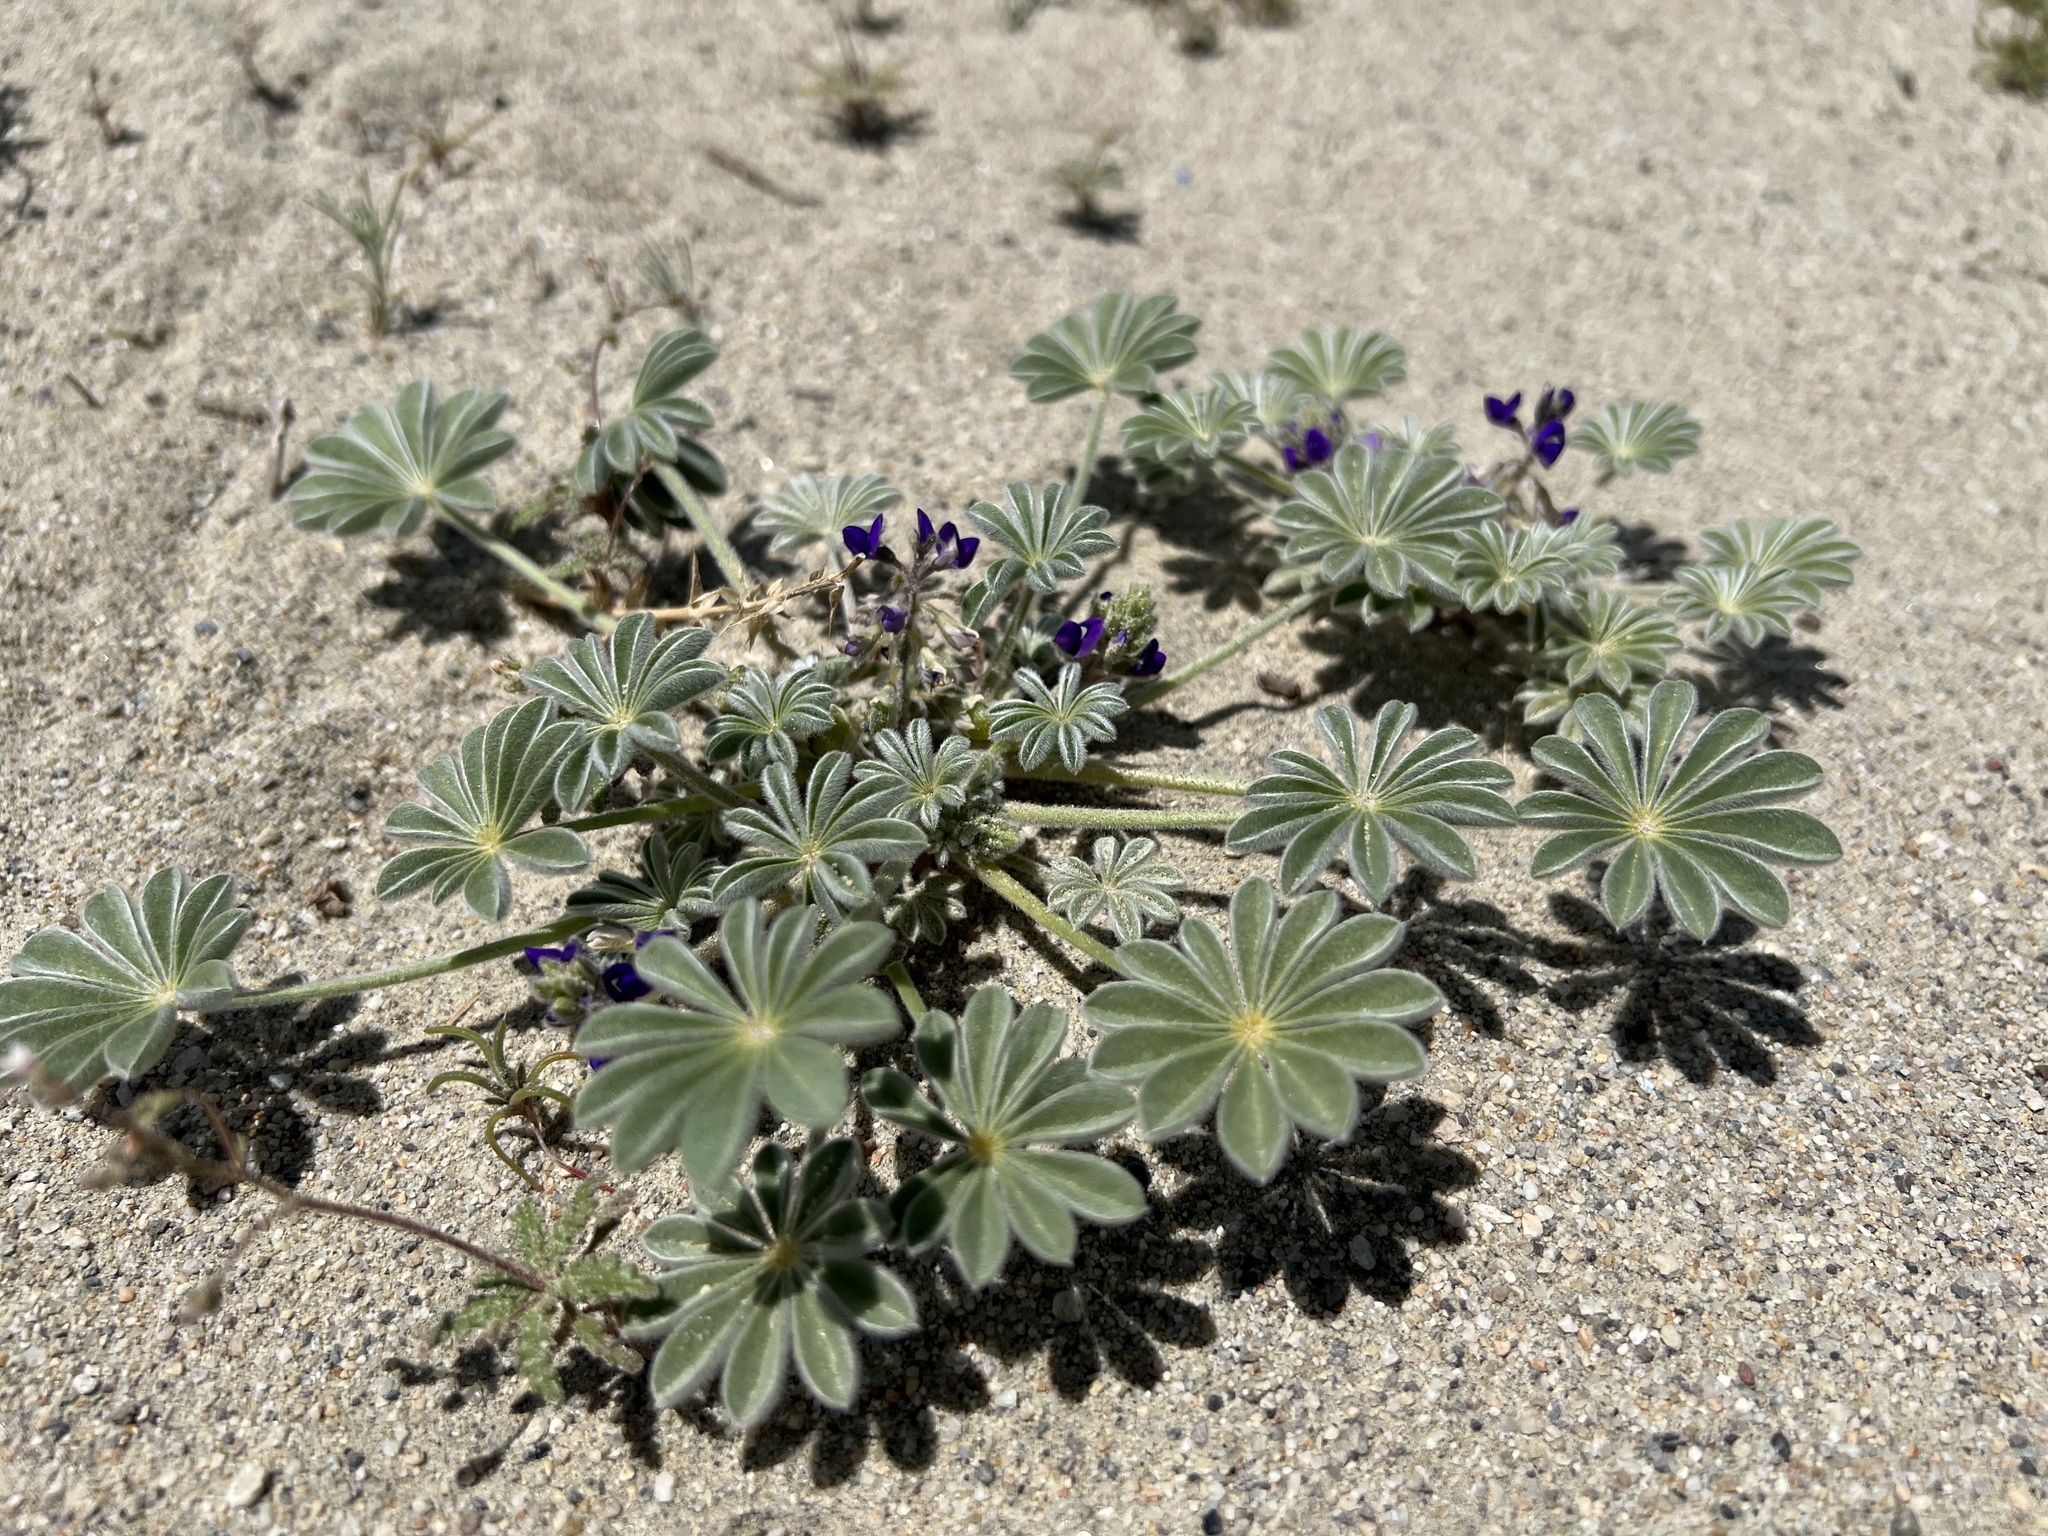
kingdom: Plantae
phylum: Tracheophyta
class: Magnoliopsida
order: Fabales
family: Fabaceae
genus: Lupinus
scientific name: Lupinus shockleyi
